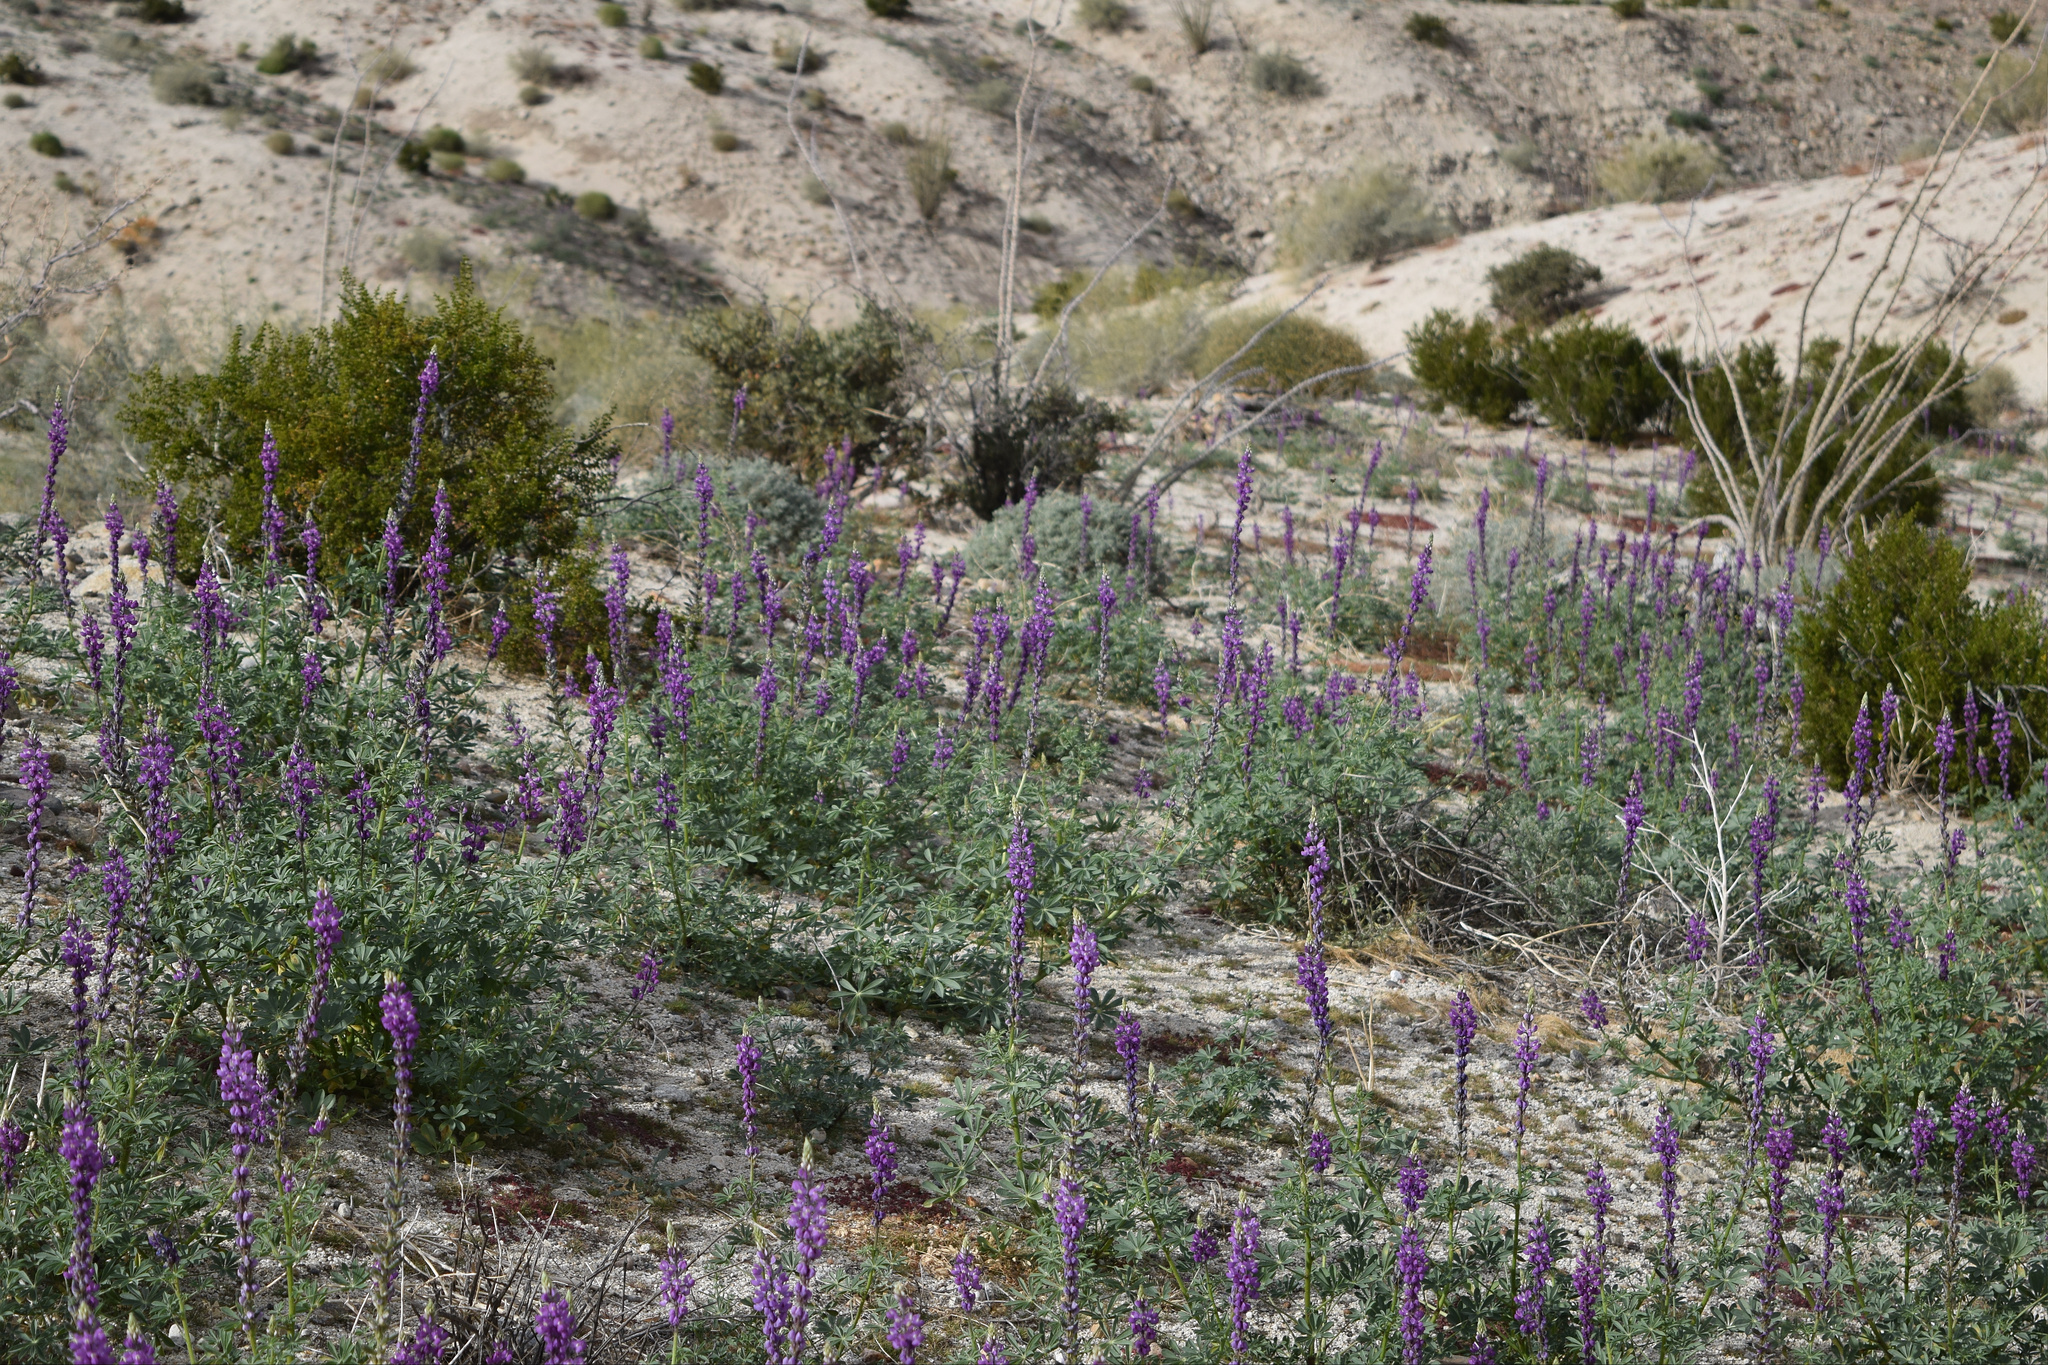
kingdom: Plantae
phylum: Tracheophyta
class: Magnoliopsida
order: Fabales
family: Fabaceae
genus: Lupinus
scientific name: Lupinus arizonicus
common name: Arizona lupine
